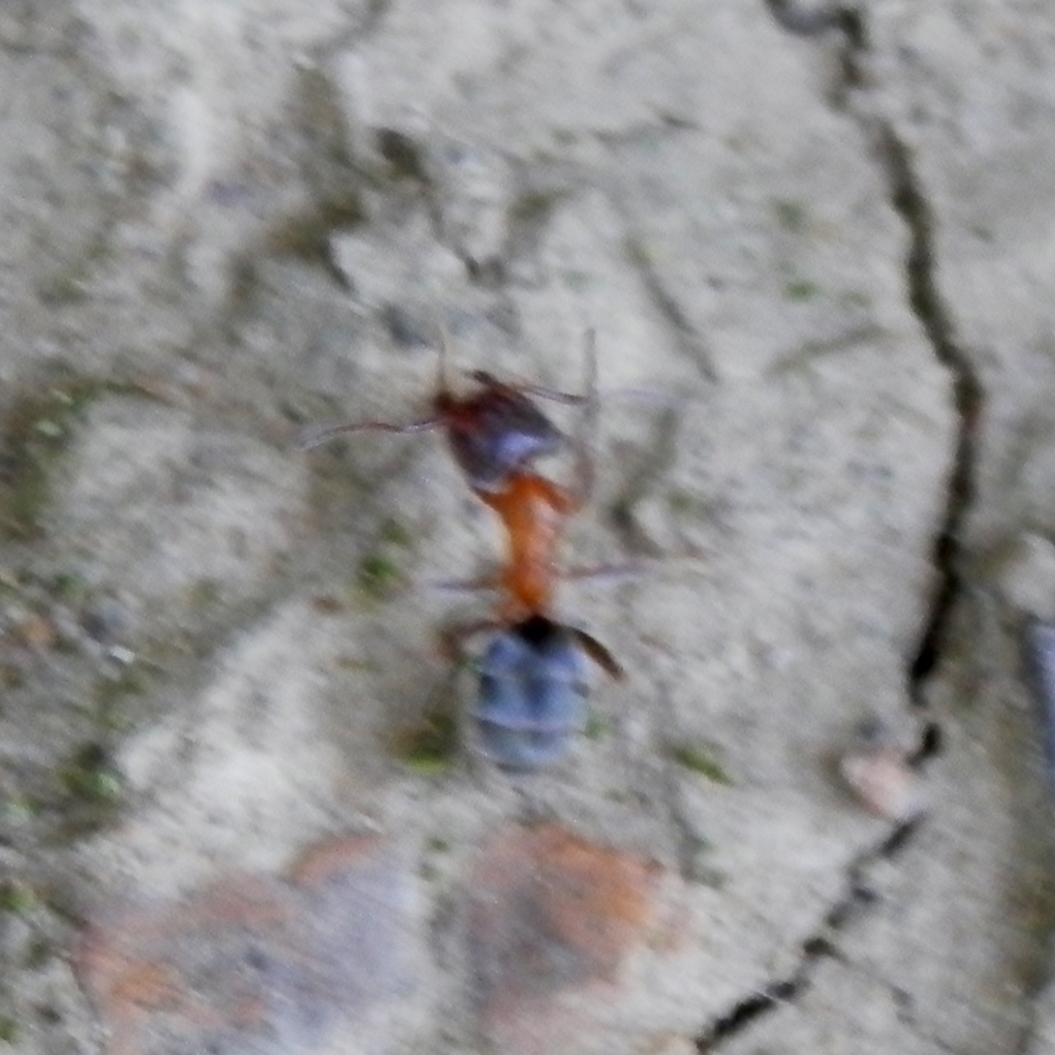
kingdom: Animalia
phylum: Arthropoda
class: Insecta
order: Hymenoptera
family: Formicidae
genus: Liometopum
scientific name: Liometopum occidentale
